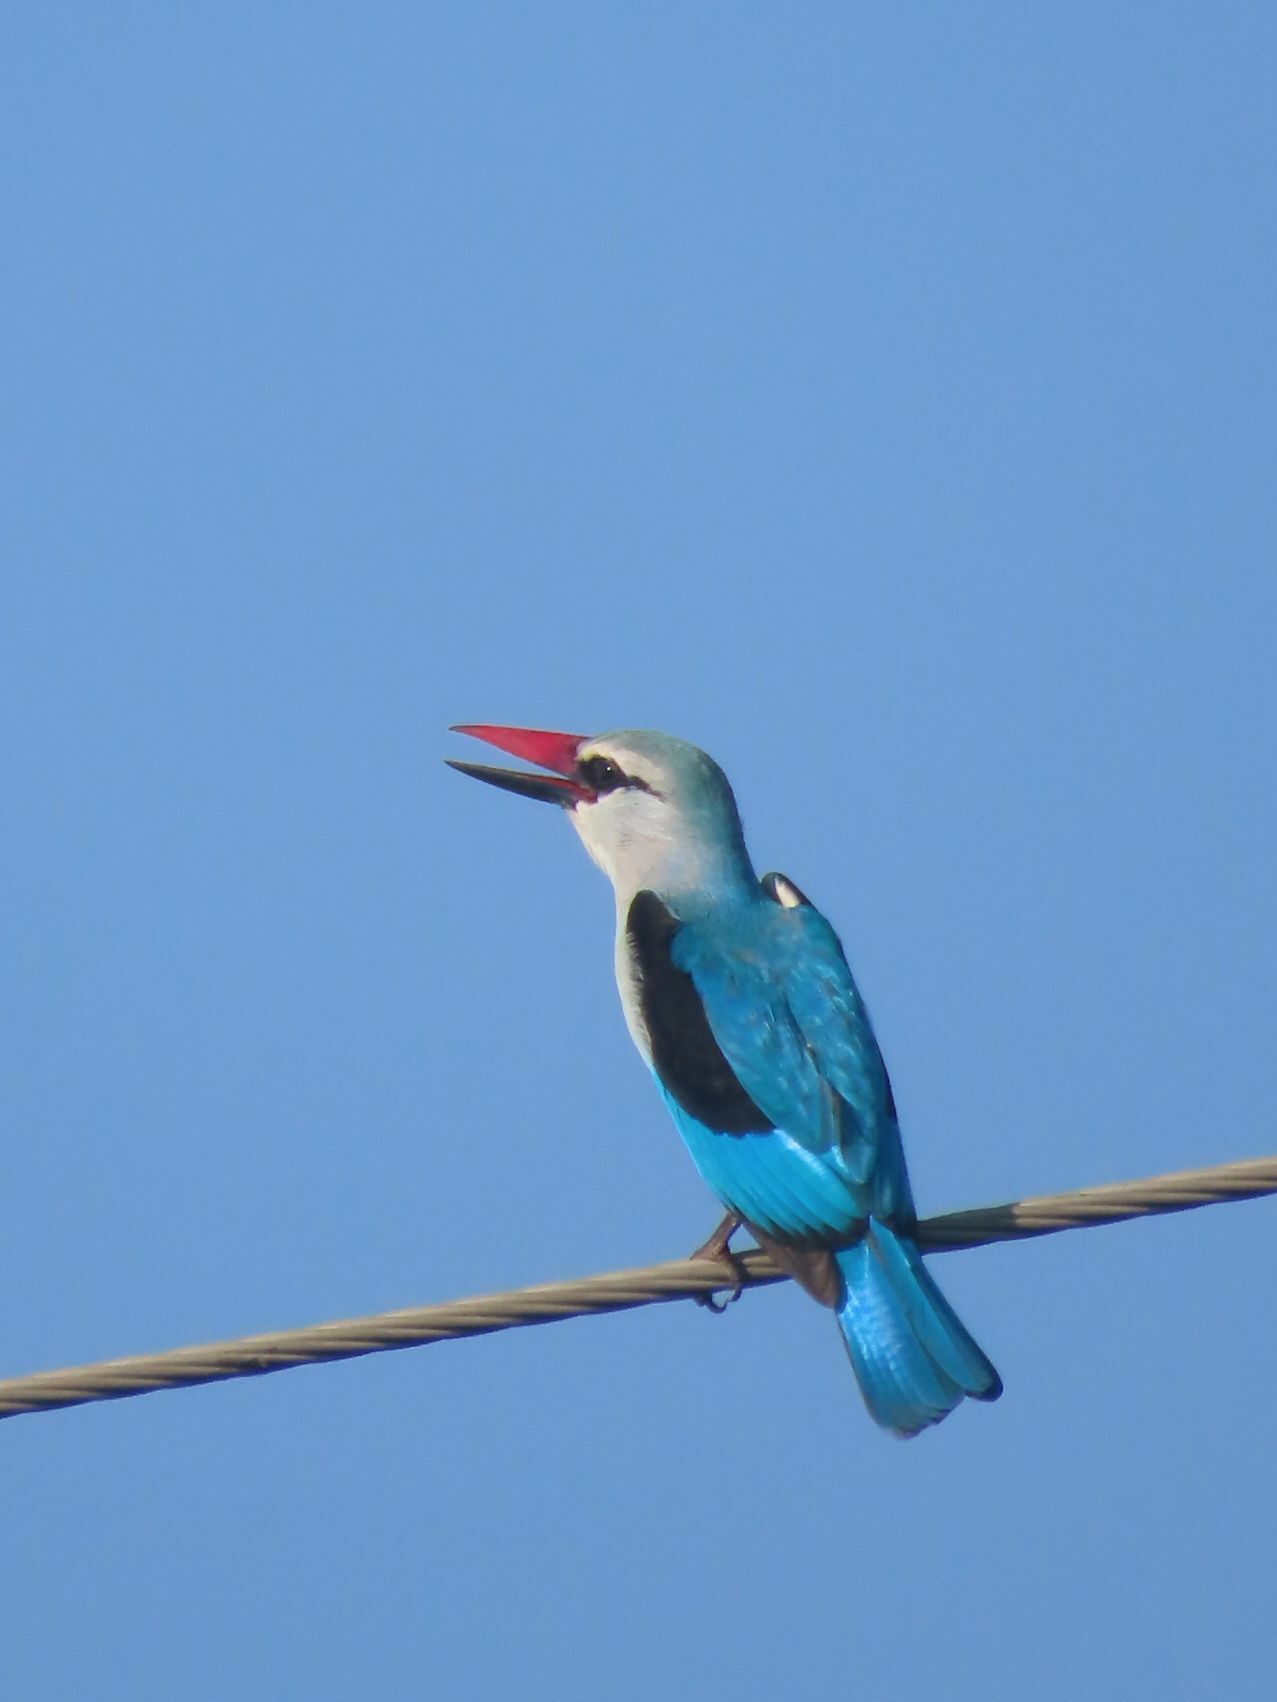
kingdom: Animalia
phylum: Chordata
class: Aves
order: Coraciiformes
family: Alcedinidae
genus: Halcyon
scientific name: Halcyon senegalensis
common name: Woodland kingfisher
